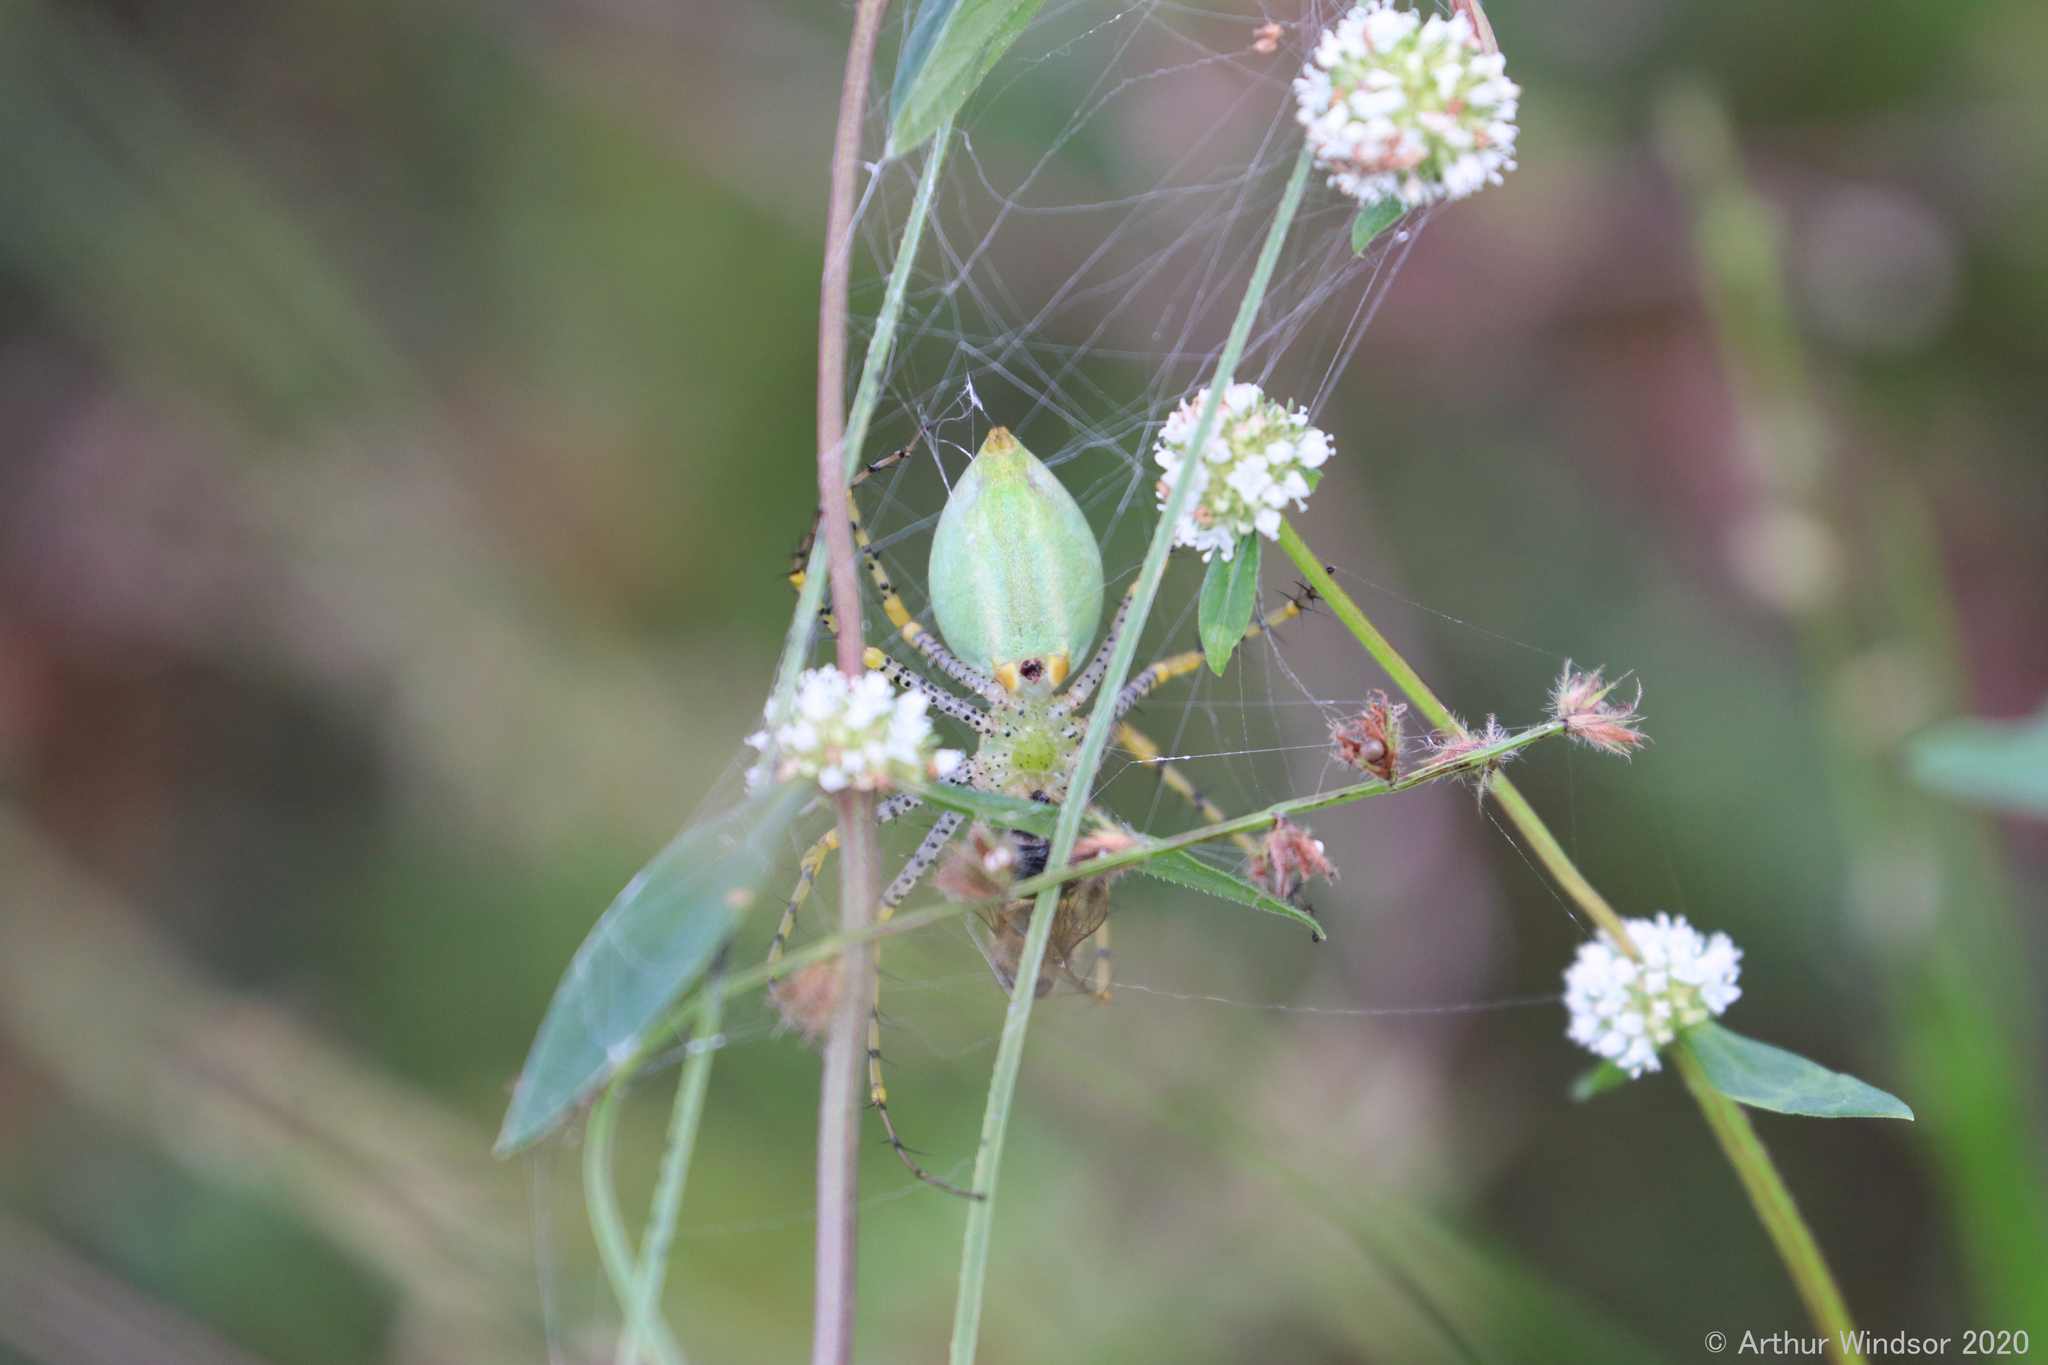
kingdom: Animalia
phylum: Arthropoda
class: Arachnida
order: Araneae
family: Oxyopidae
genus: Peucetia
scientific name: Peucetia viridans
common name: Lynx spiders
